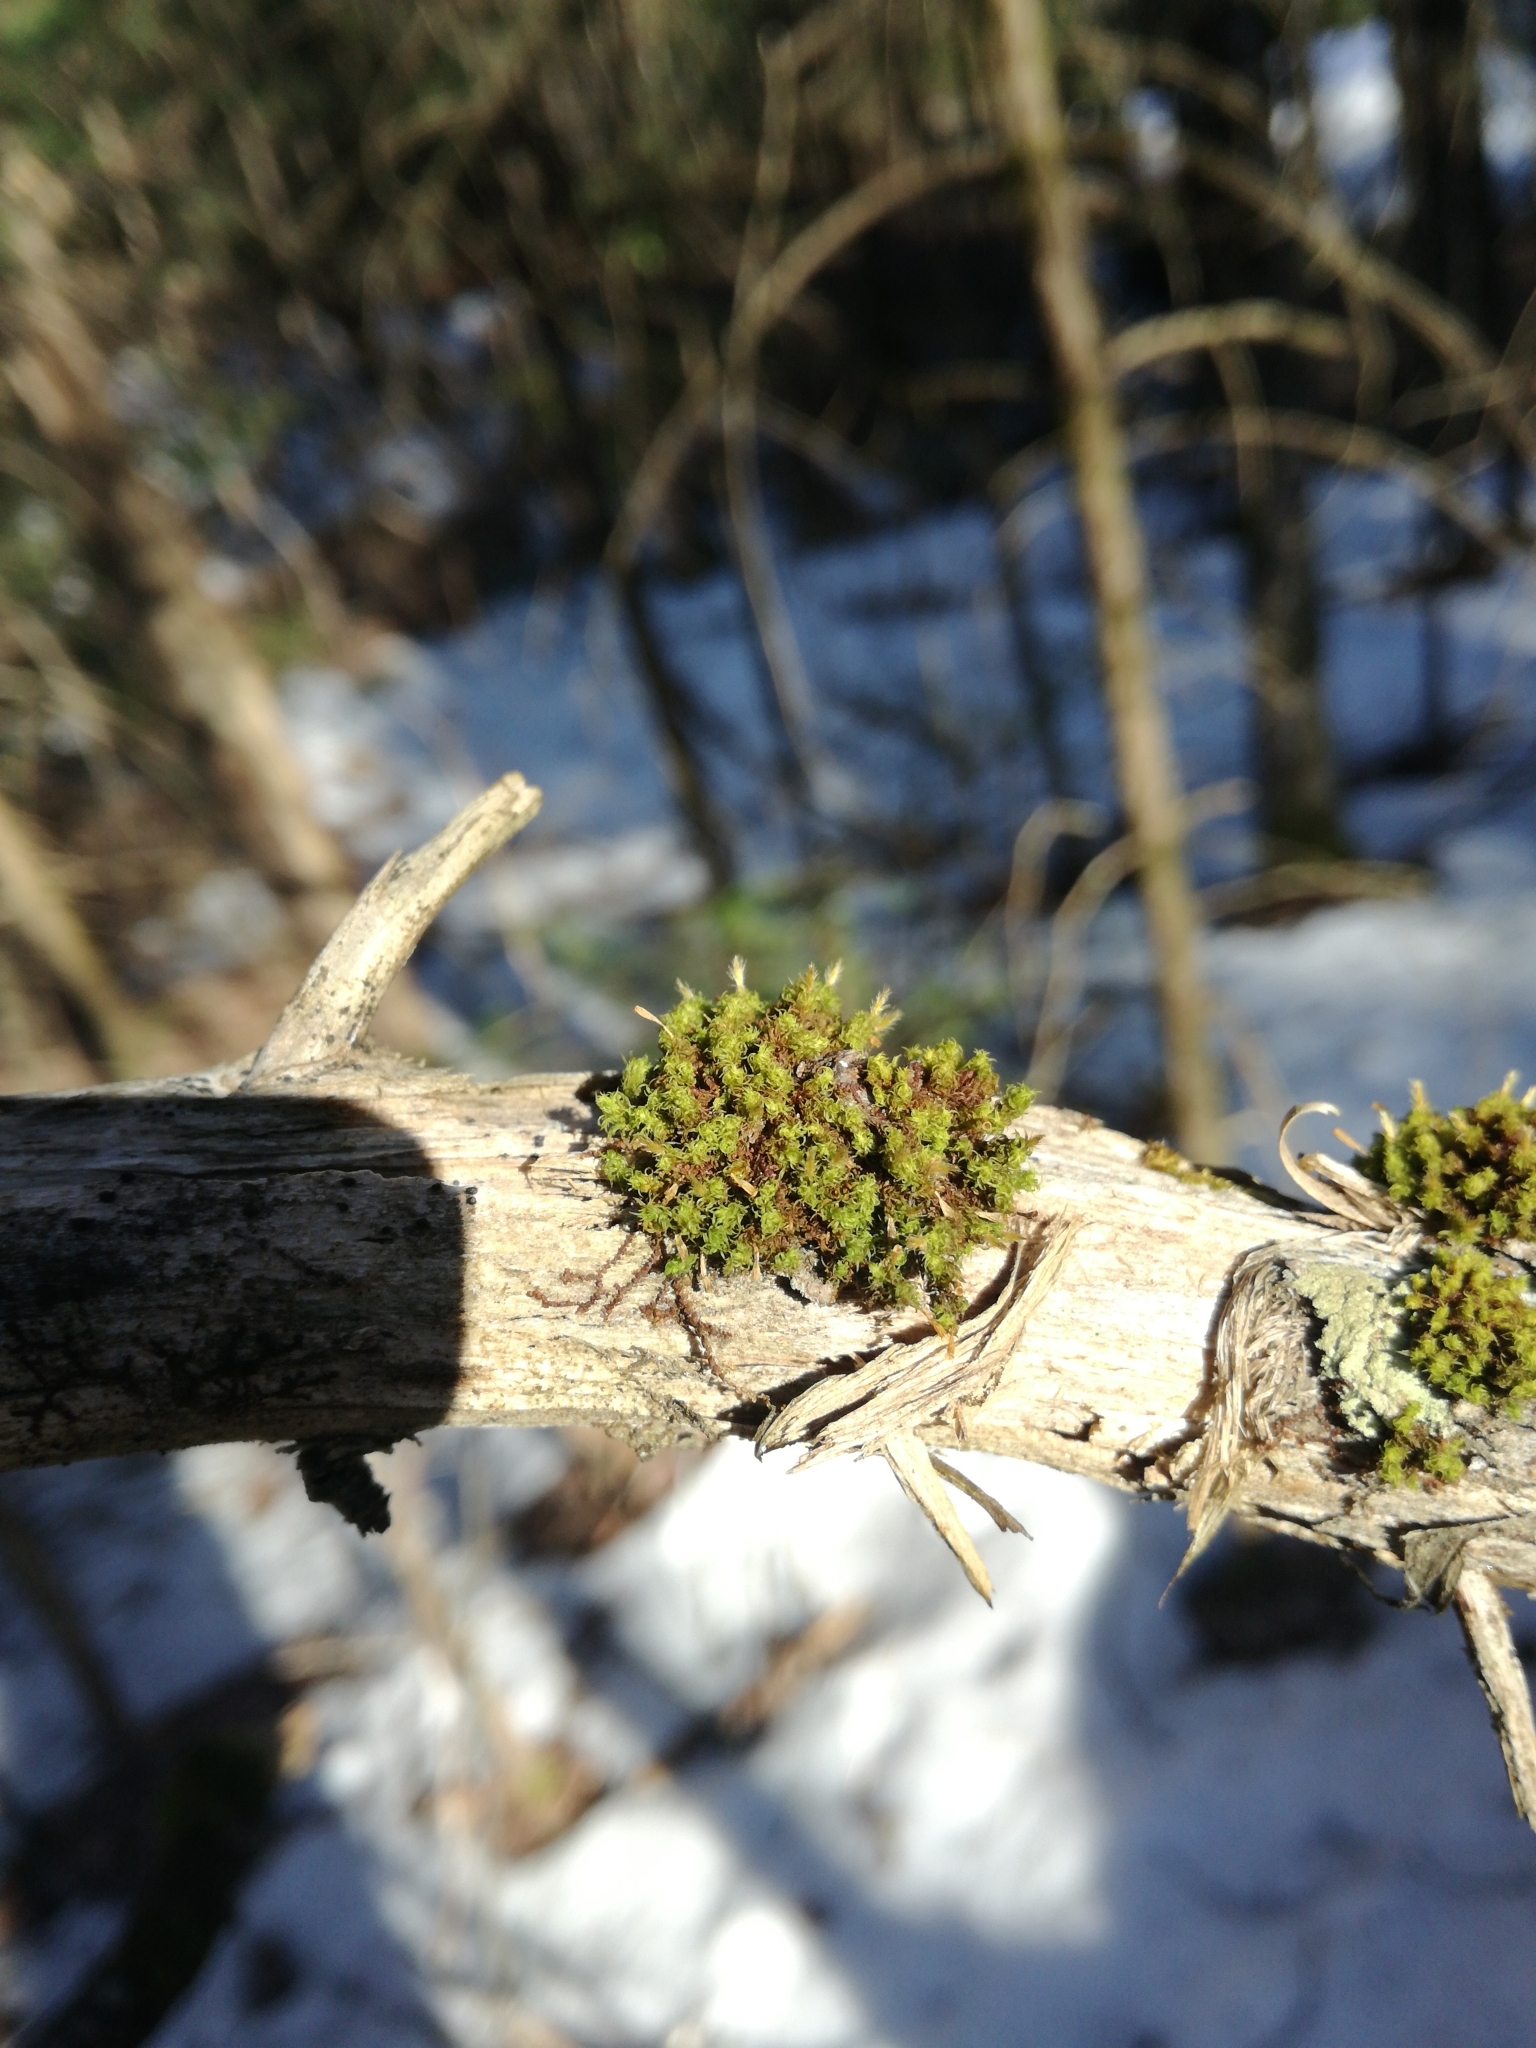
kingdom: Plantae
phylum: Bryophyta
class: Bryopsida
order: Orthotrichales
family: Orthotrichaceae
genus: Ulota
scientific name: Ulota crispa
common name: Crisped pincushion moss
